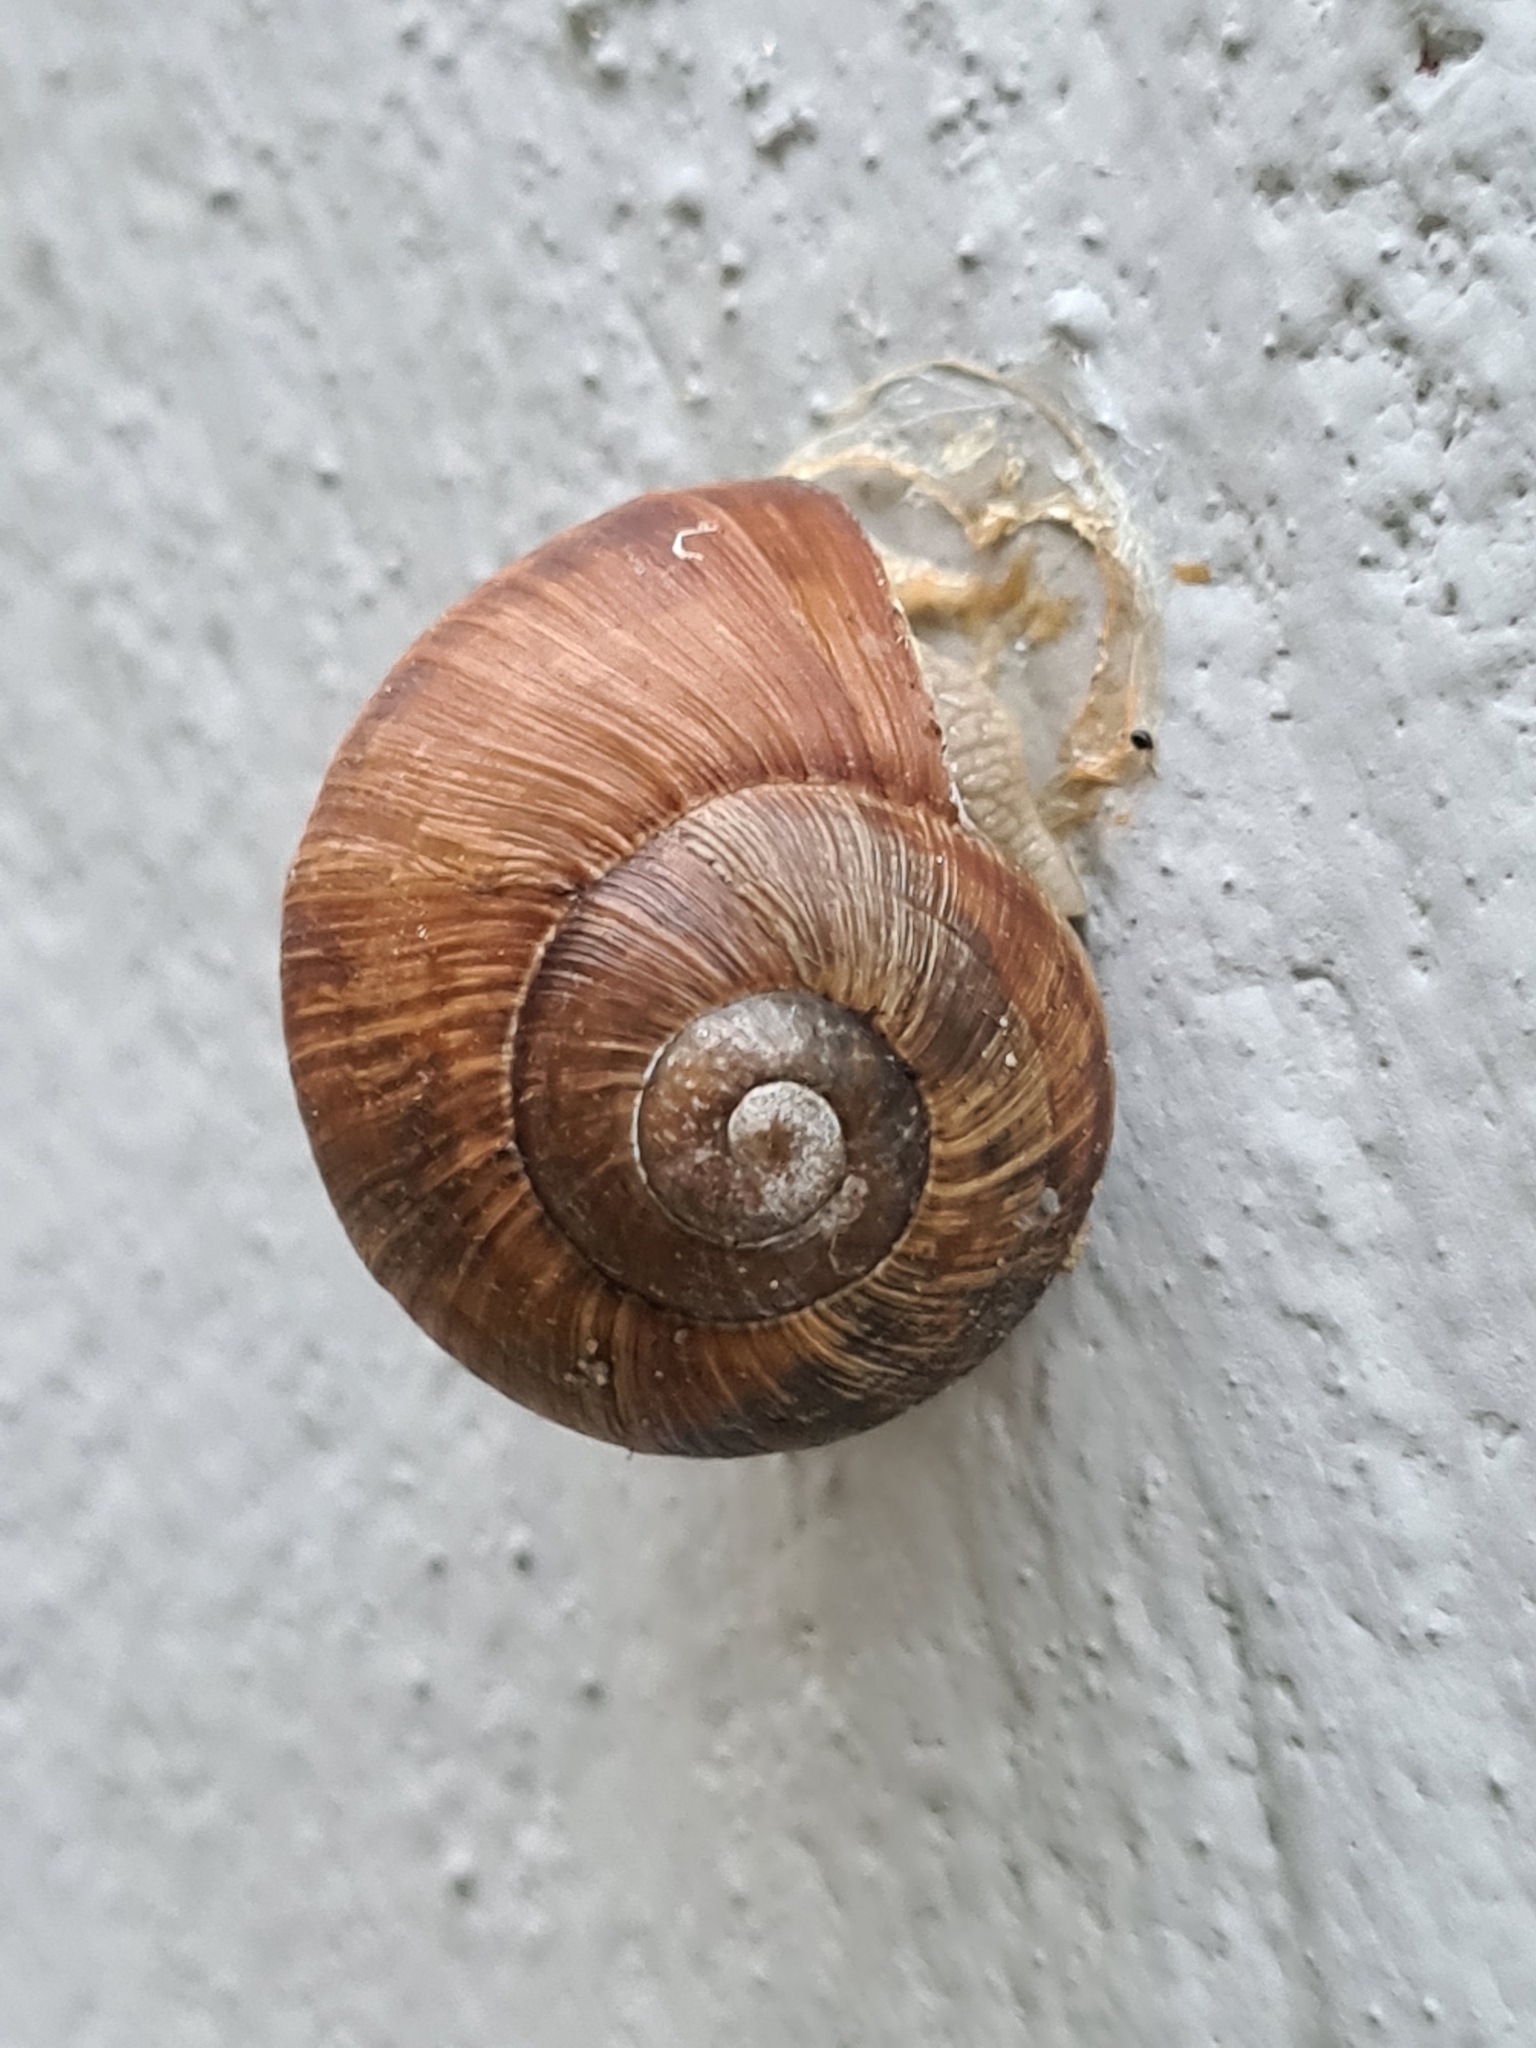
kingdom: Animalia
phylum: Mollusca
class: Gastropoda
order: Stylommatophora
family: Helicidae
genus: Helix
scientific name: Helix pomatia
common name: Roman snail
